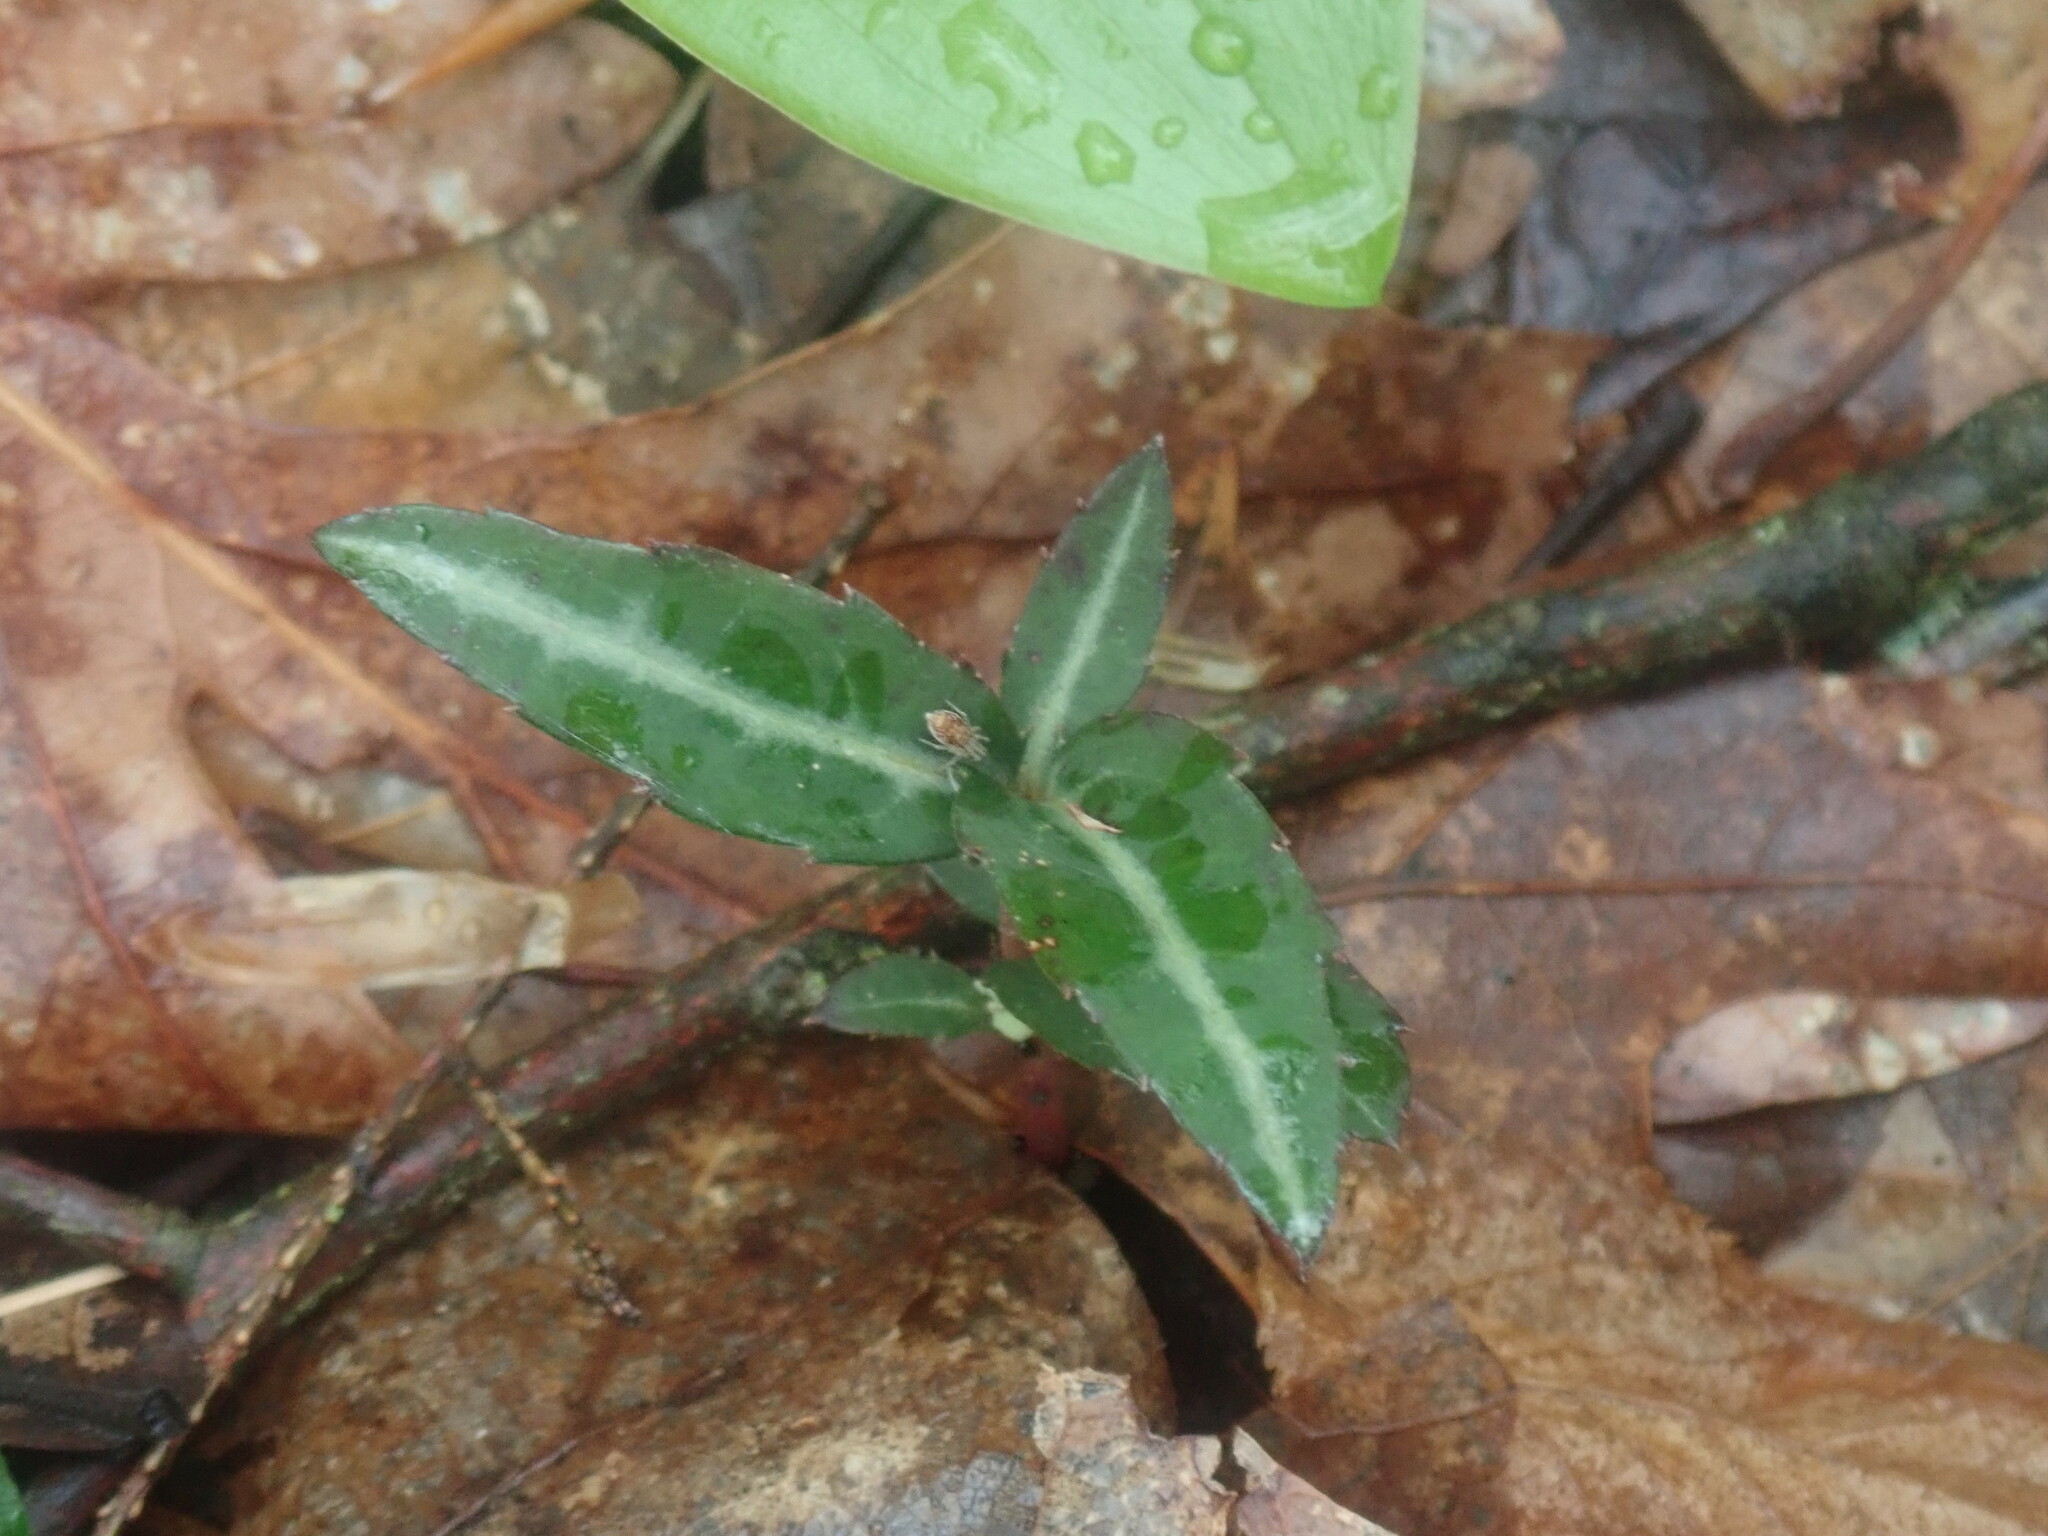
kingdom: Plantae
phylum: Tracheophyta
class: Magnoliopsida
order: Ericales
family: Ericaceae
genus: Chimaphila
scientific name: Chimaphila maculata
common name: Spotted pipsissewa
